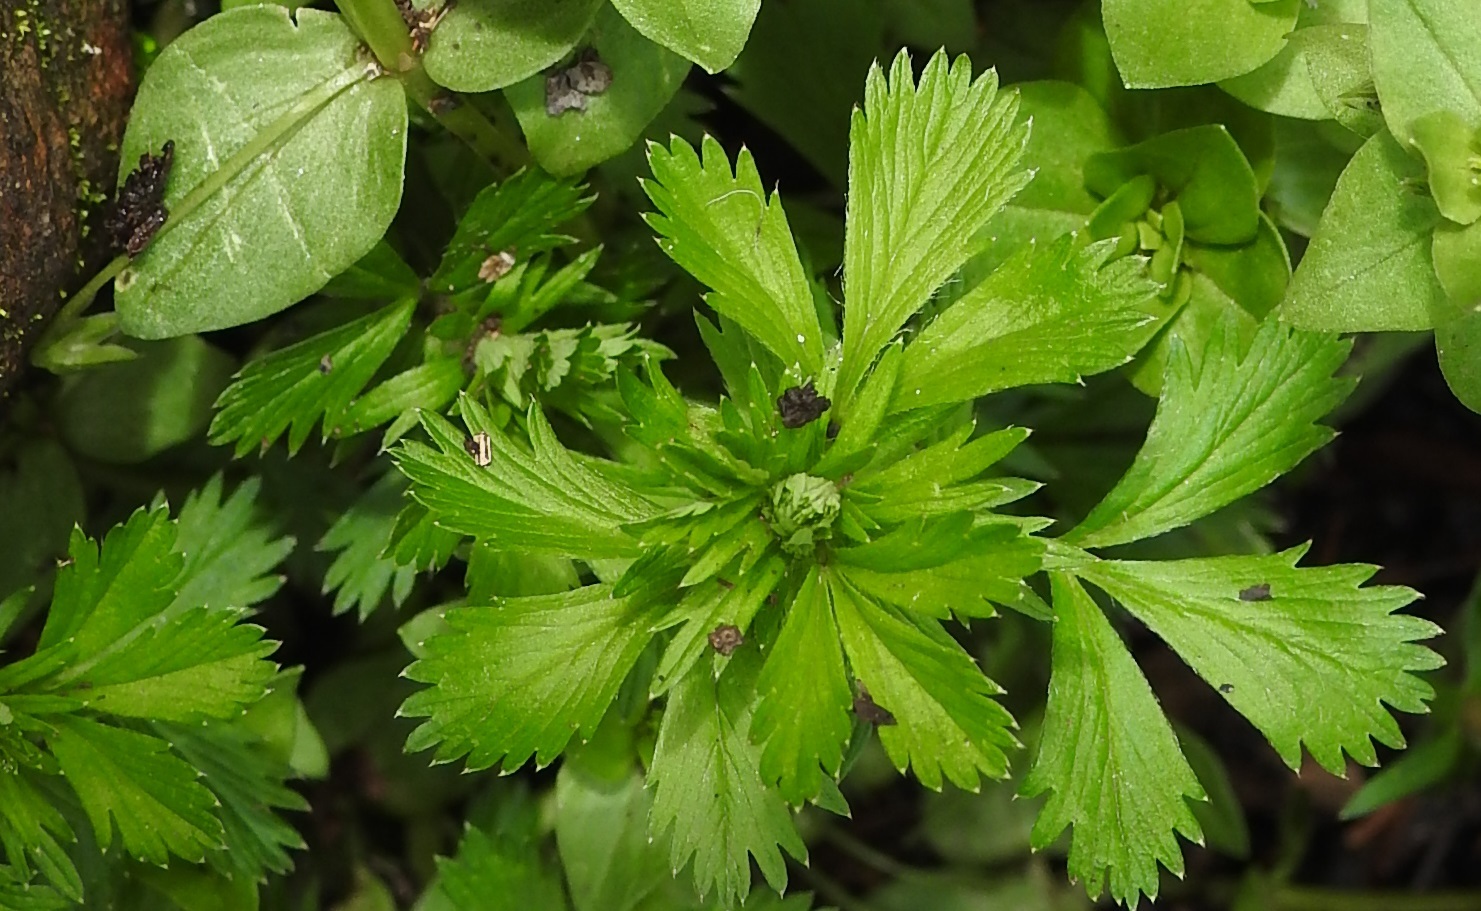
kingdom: Plantae
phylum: Tracheophyta
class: Magnoliopsida
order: Rosales
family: Rosaceae
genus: Lachemilla
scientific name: Lachemilla procumbens
